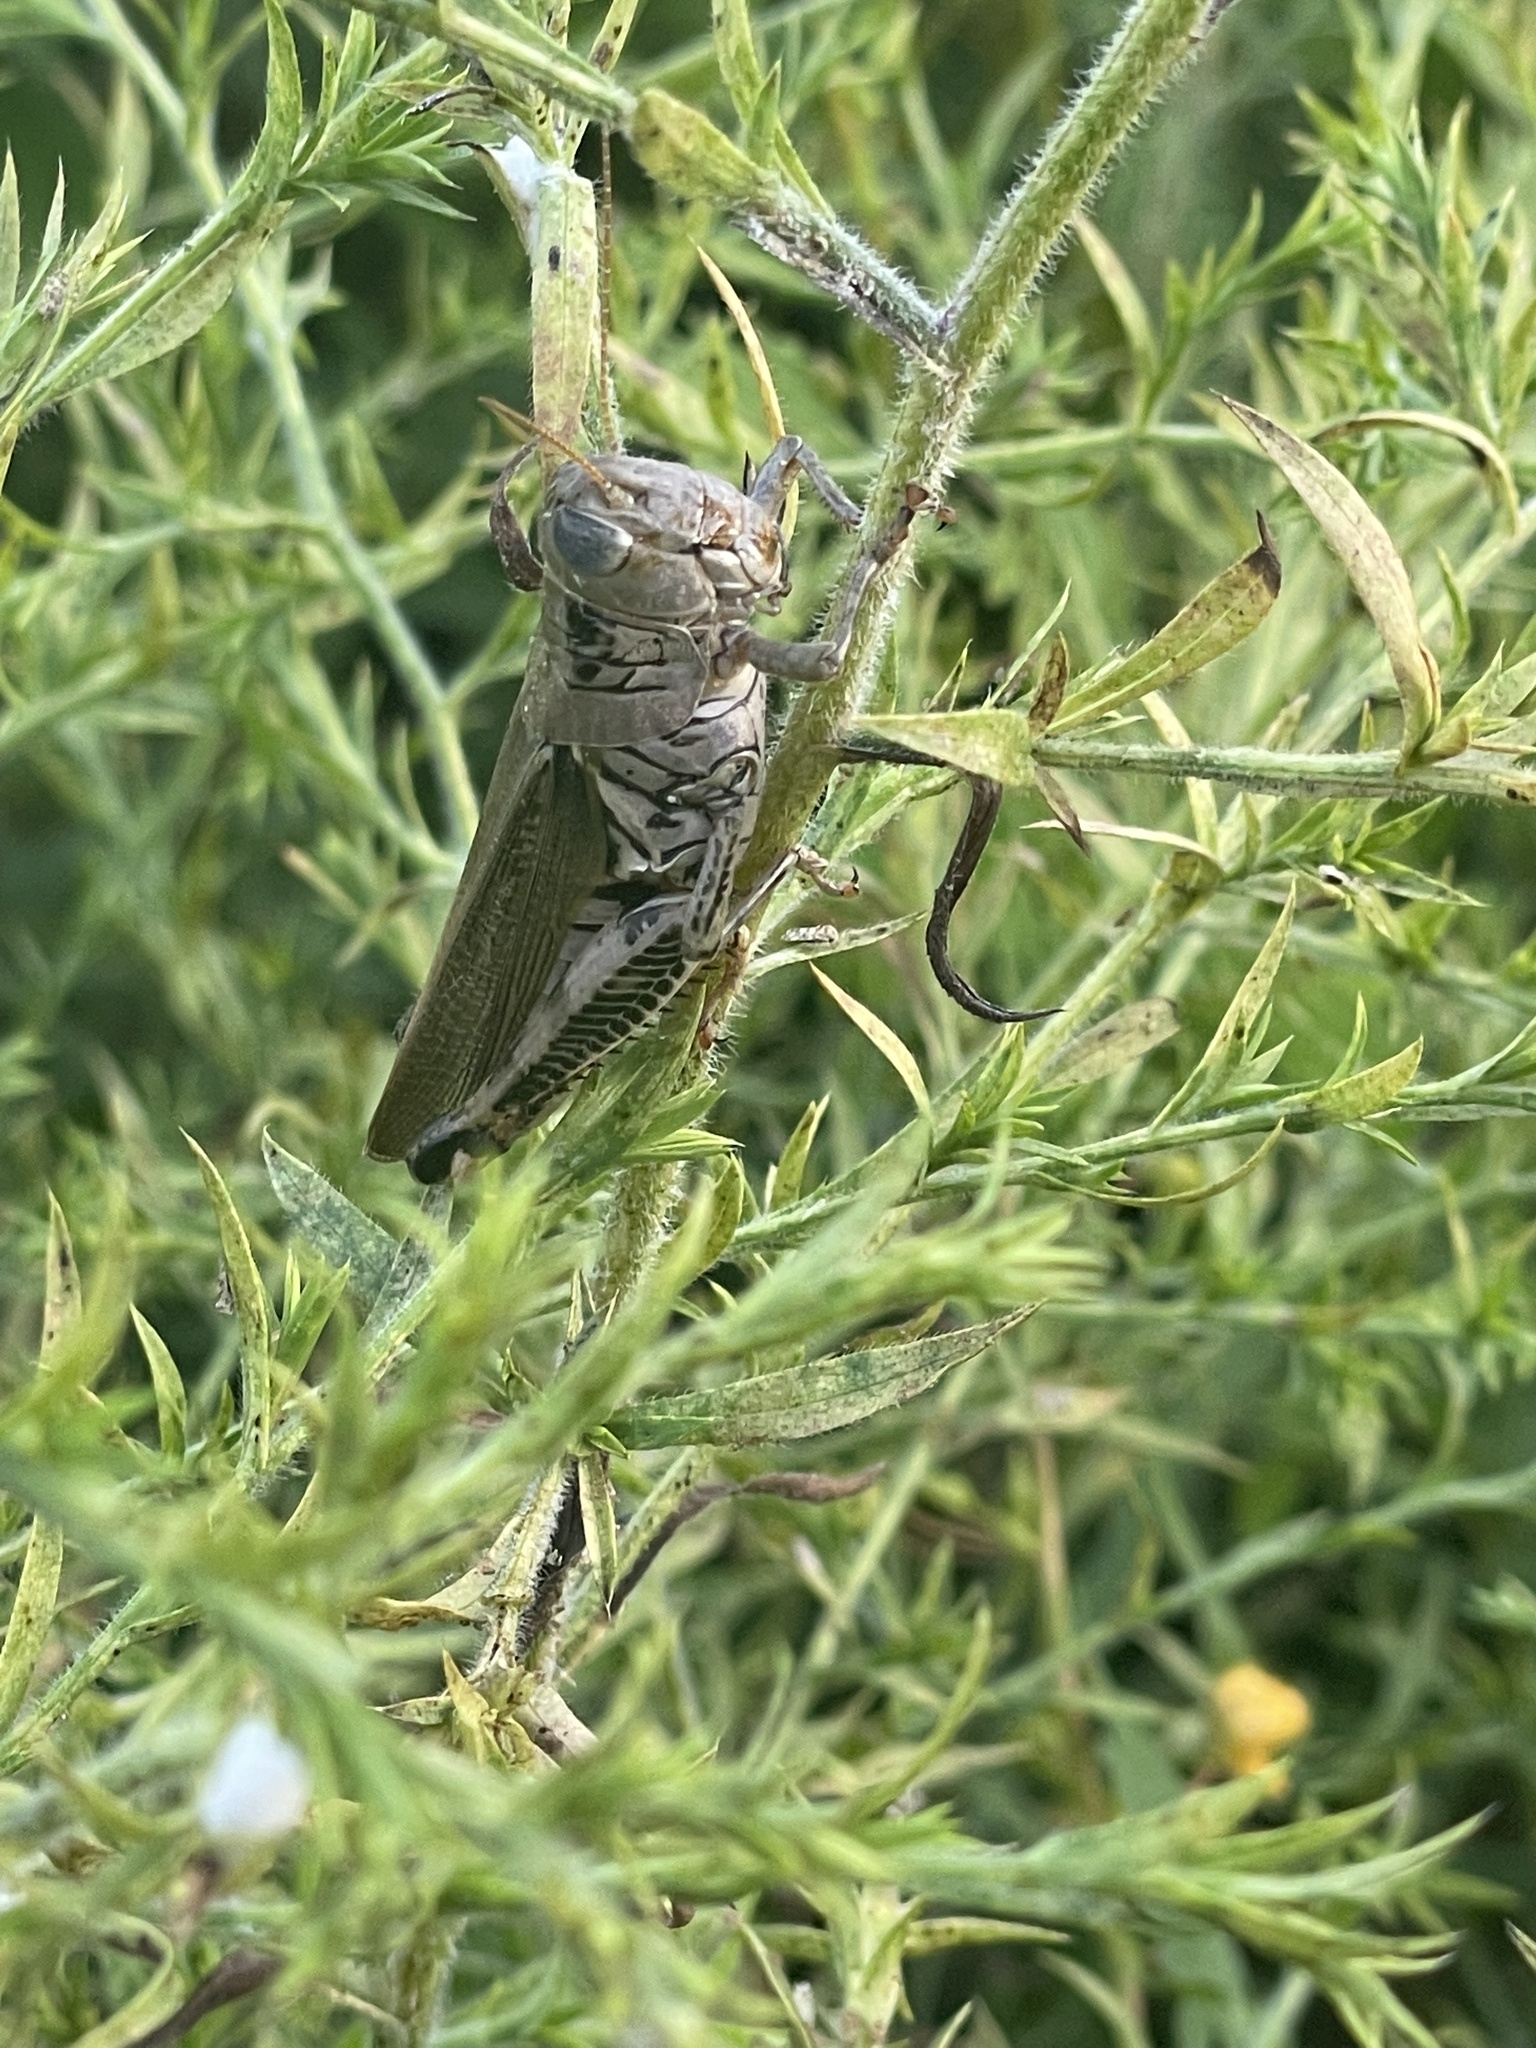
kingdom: Animalia
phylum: Arthropoda
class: Insecta
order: Orthoptera
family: Acrididae
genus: Melanoplus
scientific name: Melanoplus differentialis
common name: Differential grasshopper
